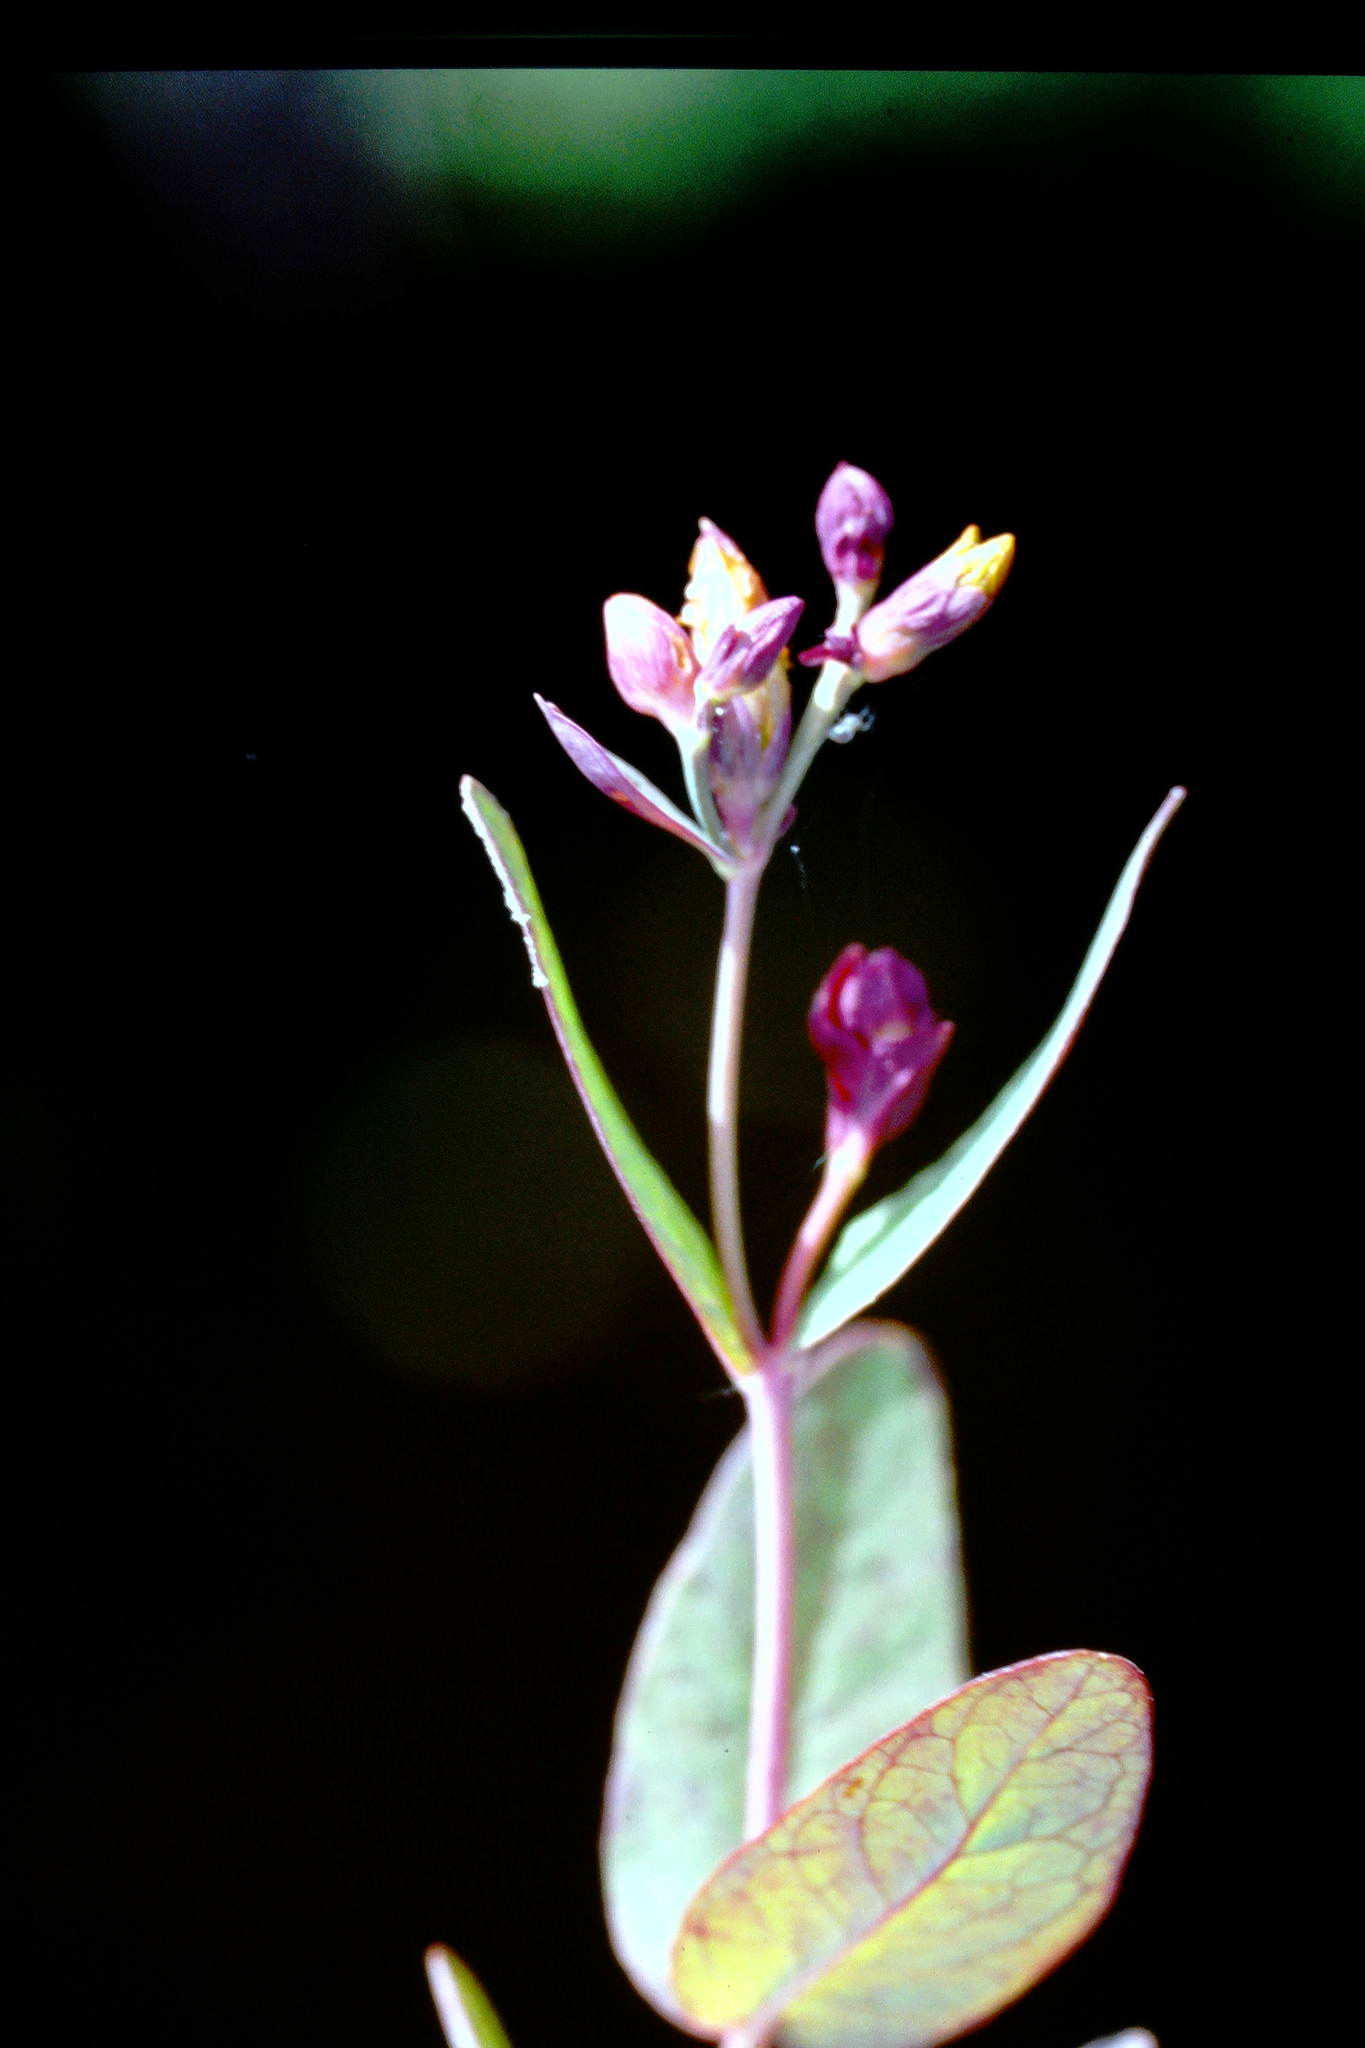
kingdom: Plantae
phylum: Tracheophyta
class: Magnoliopsida
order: Malpighiales
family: Hypericaceae
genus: Triadenum
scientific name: Triadenum fraseri
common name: Fraser's marsh st. johnswort
